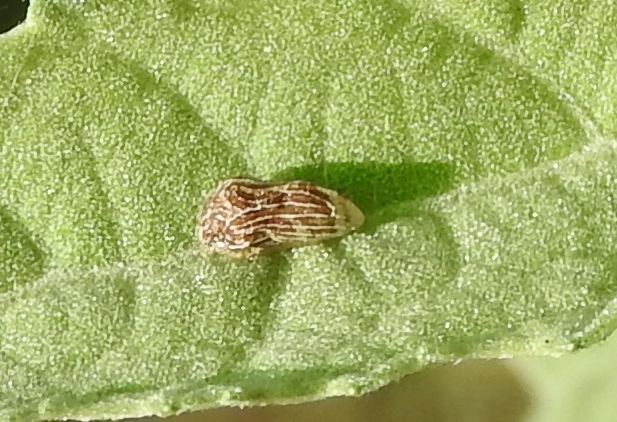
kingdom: Animalia
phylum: Arthropoda
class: Insecta
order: Hemiptera
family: Membracidae
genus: Publilia
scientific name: Publilia erecta
